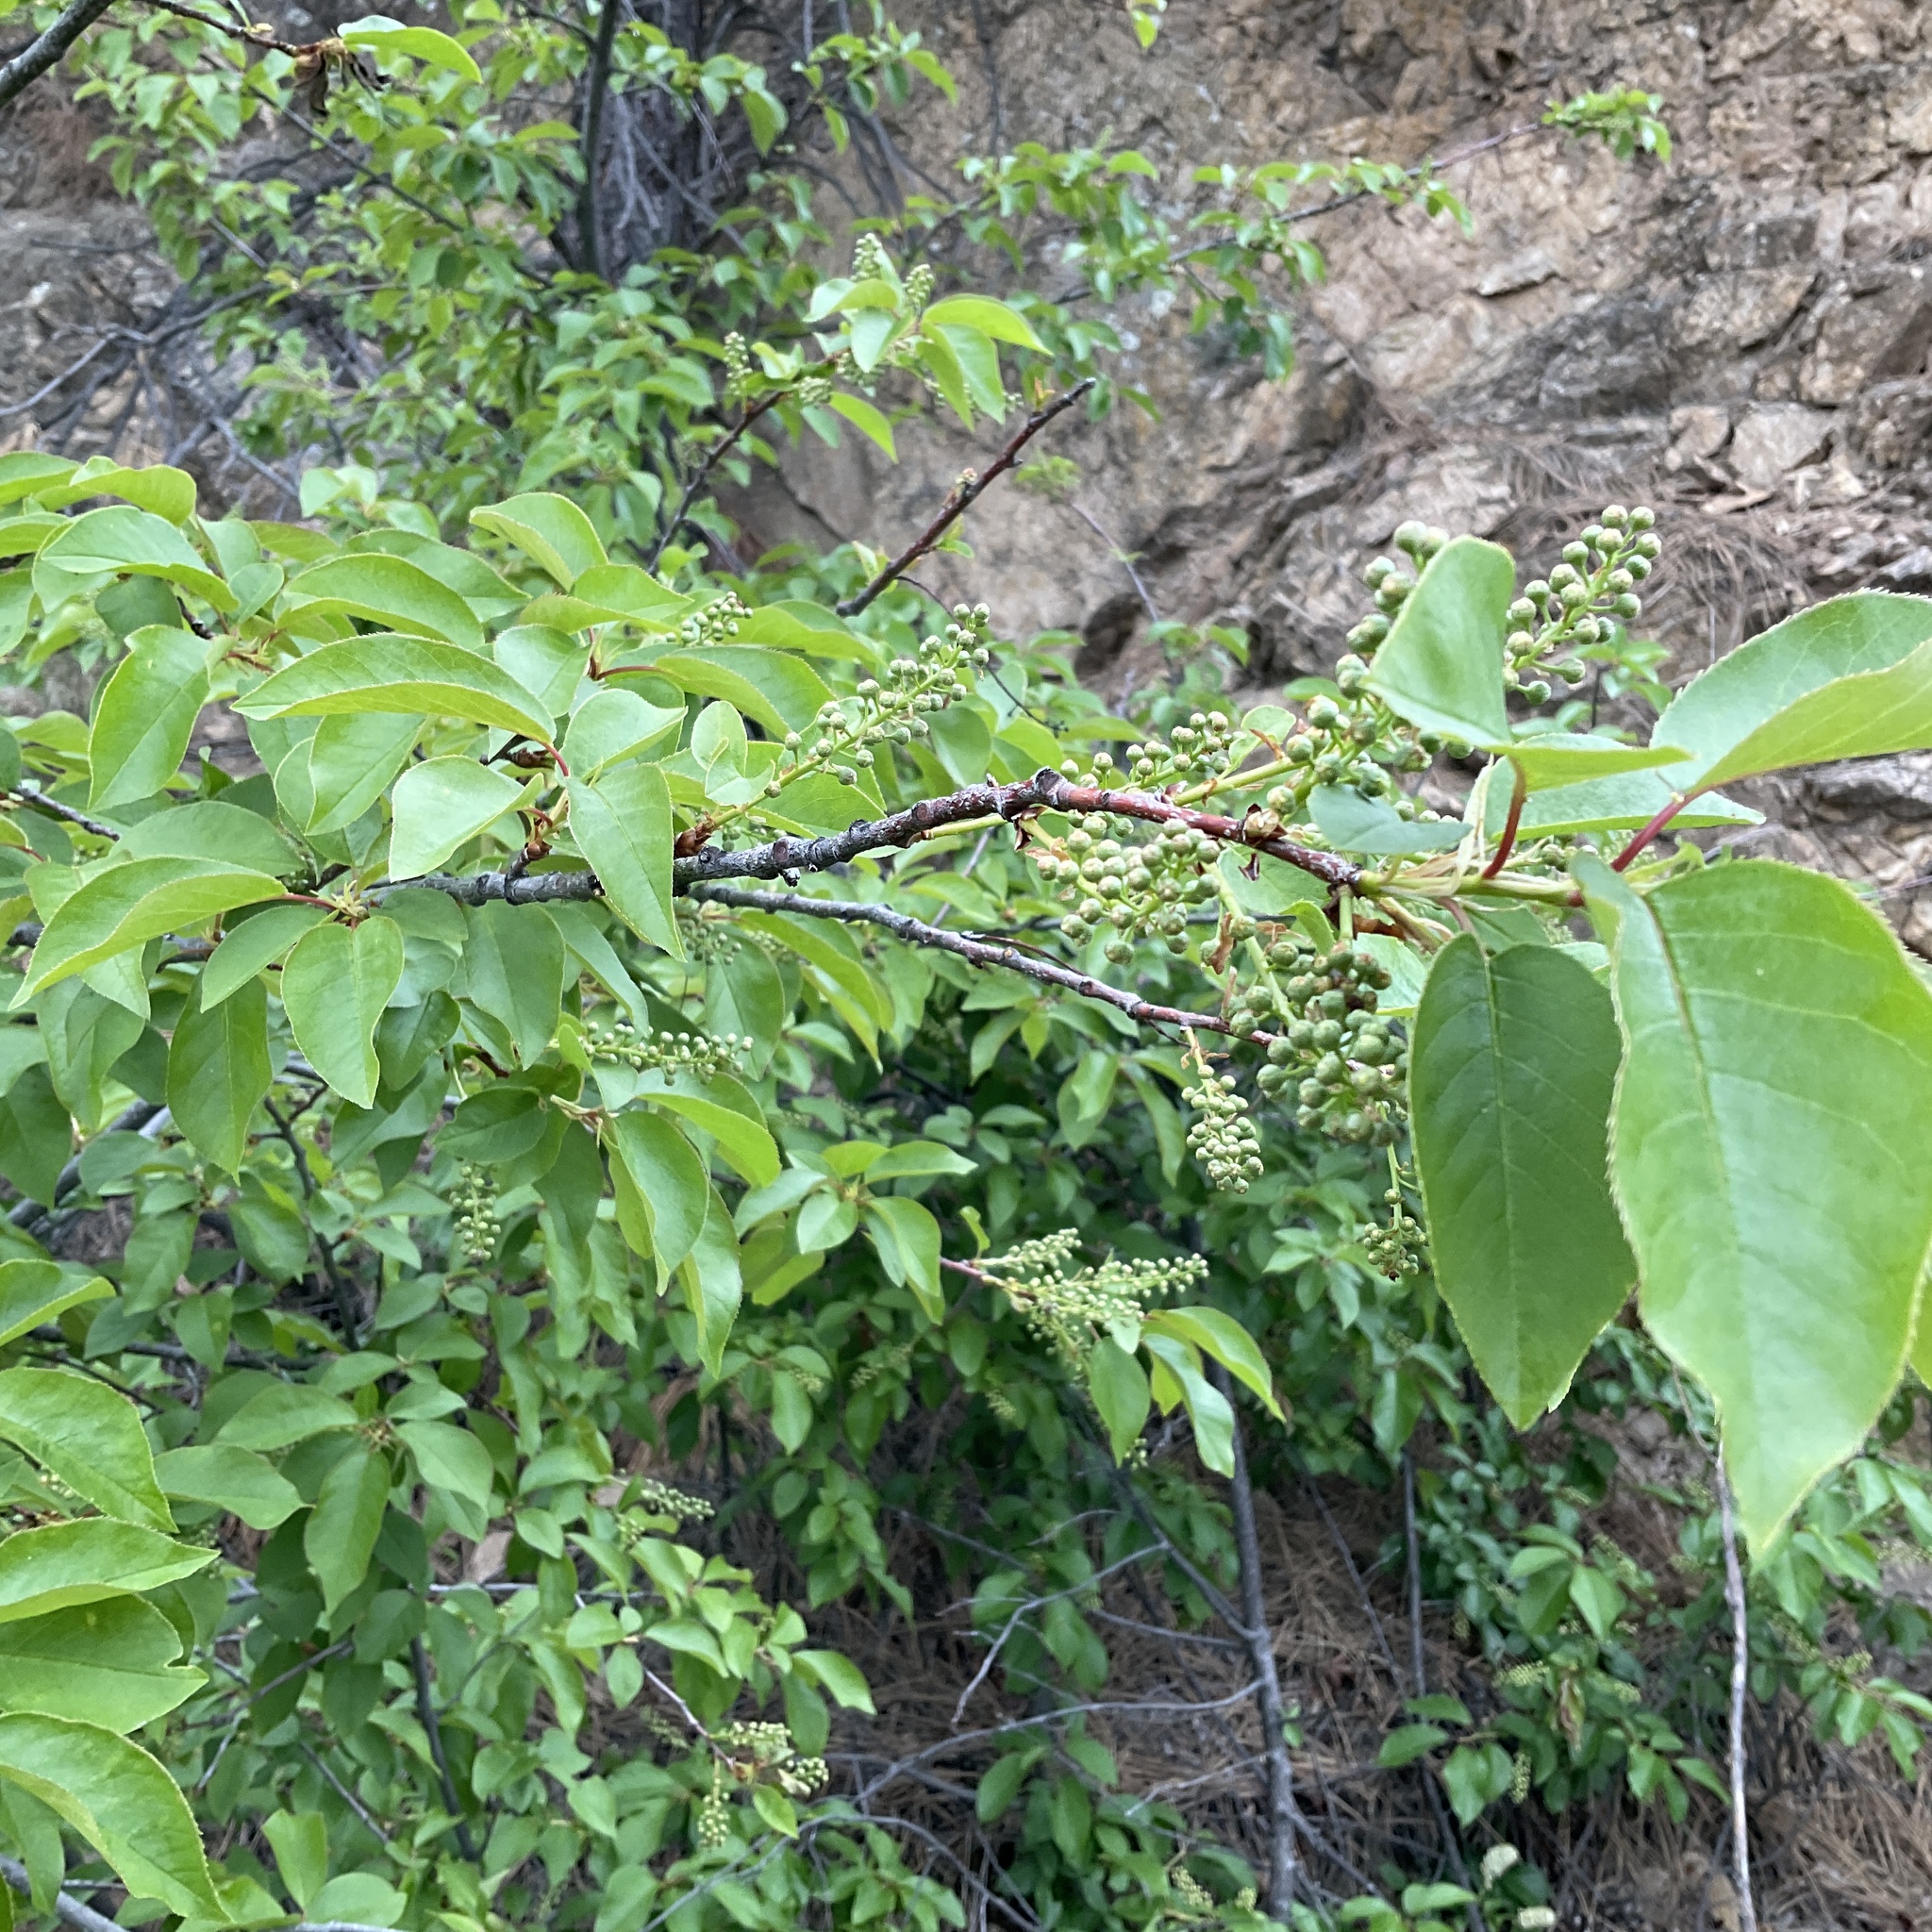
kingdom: Plantae
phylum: Tracheophyta
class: Magnoliopsida
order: Rosales
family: Rosaceae
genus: Prunus
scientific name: Prunus virginiana
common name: Chokecherry
